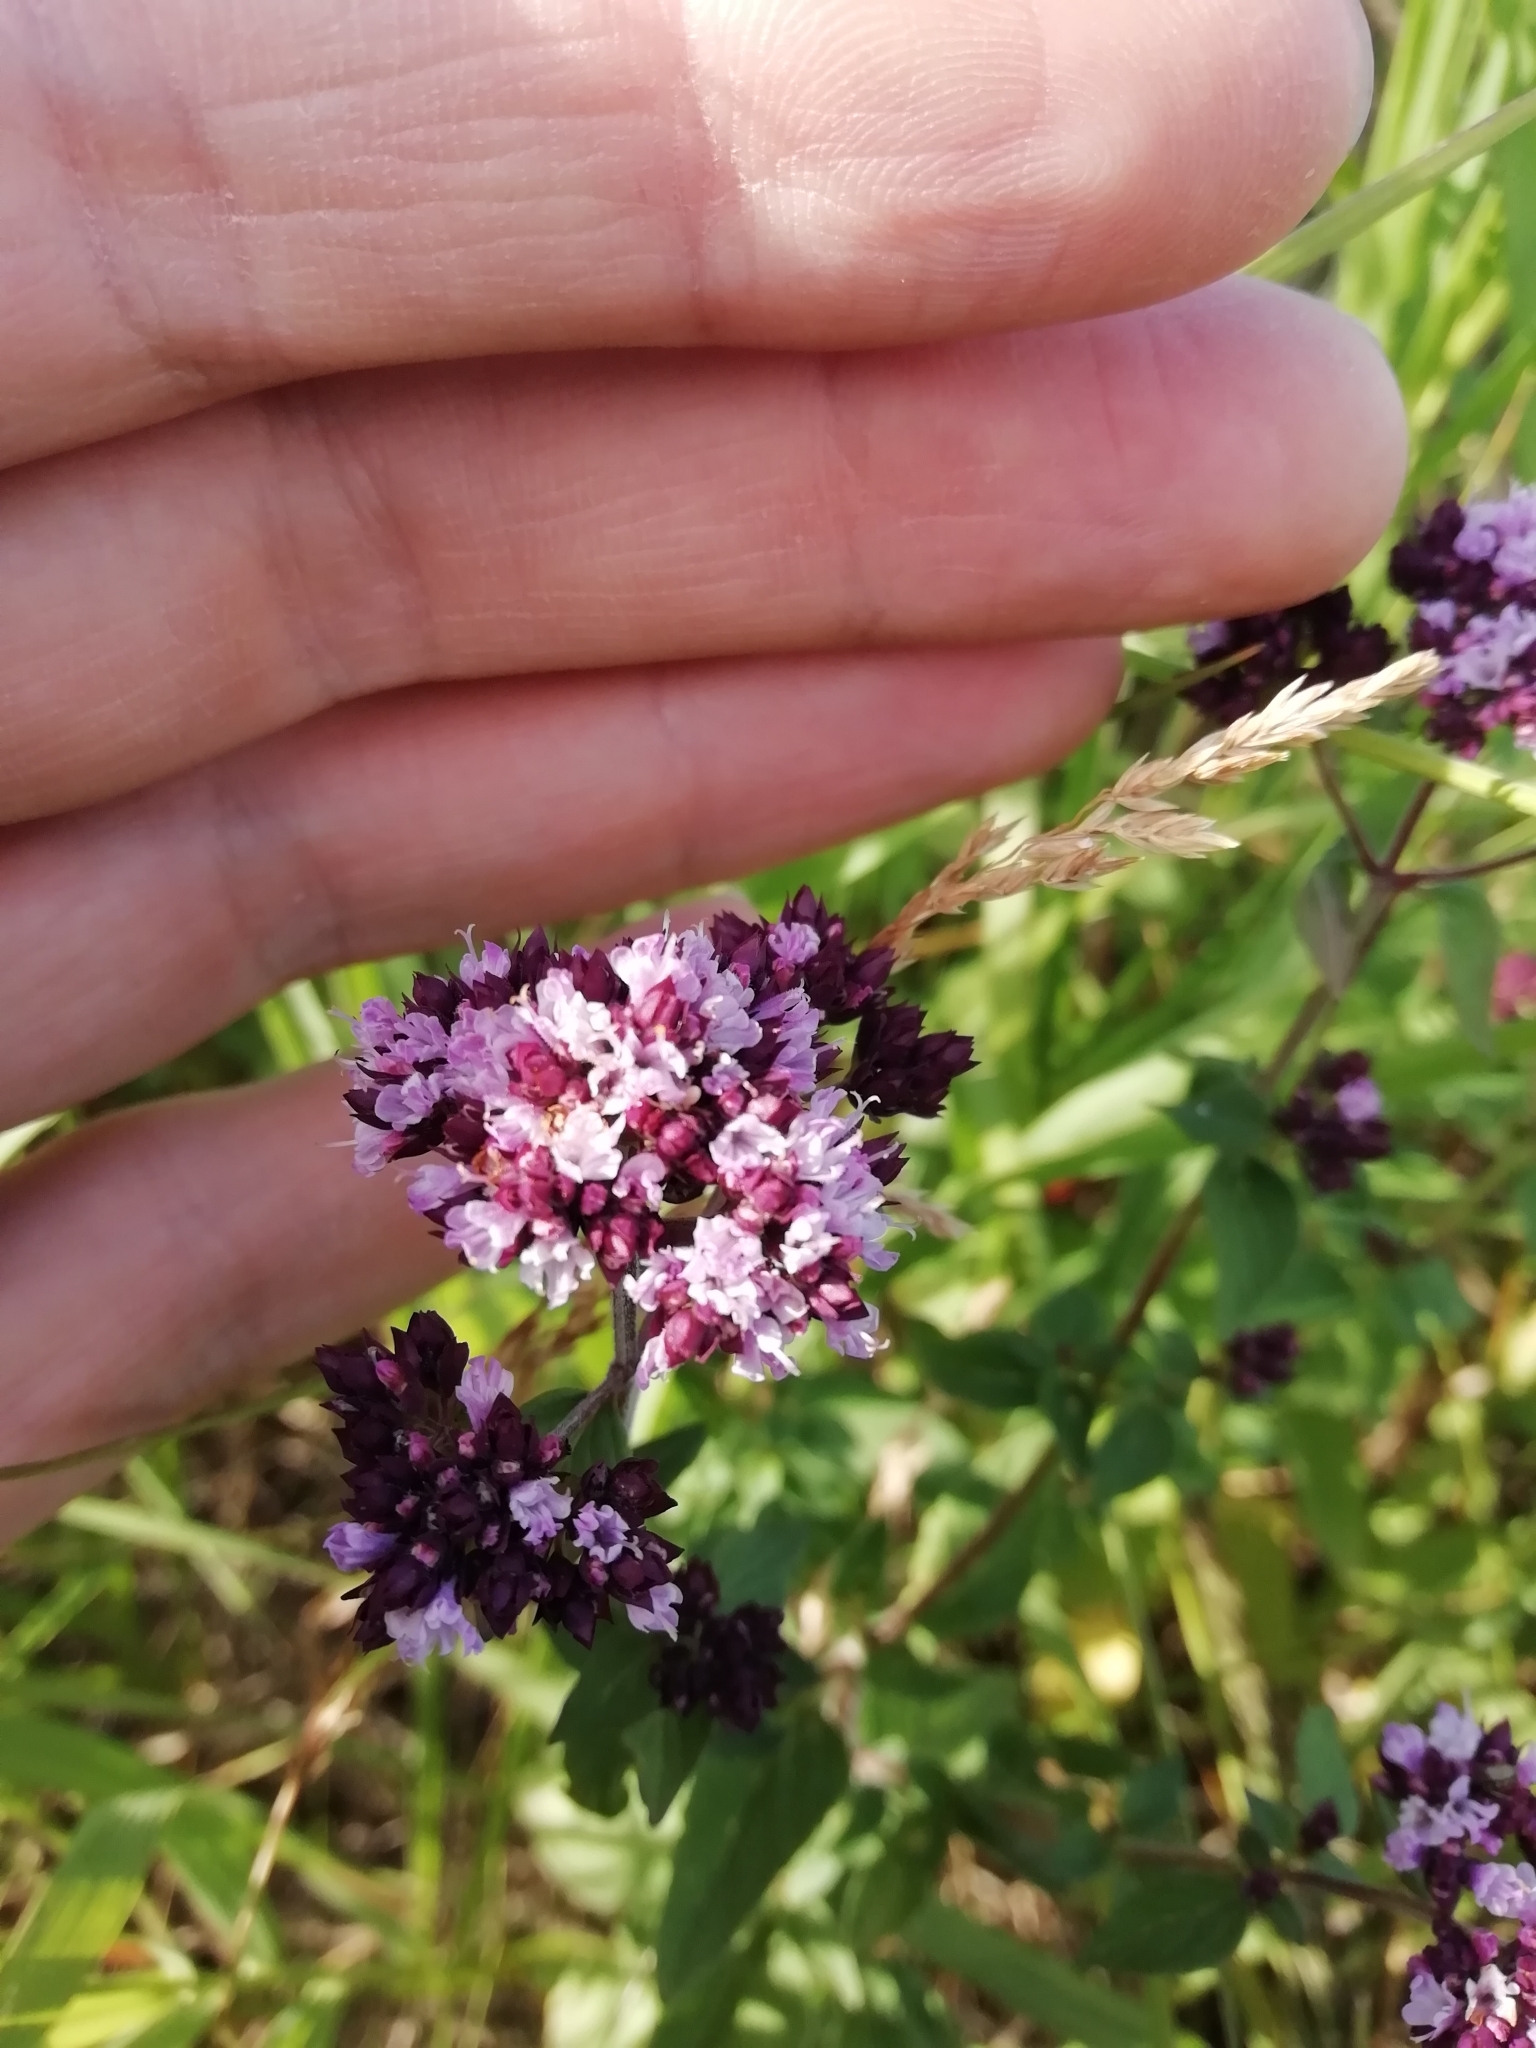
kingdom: Plantae
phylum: Tracheophyta
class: Magnoliopsida
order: Lamiales
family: Lamiaceae
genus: Origanum
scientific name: Origanum vulgare
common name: Wild marjoram
